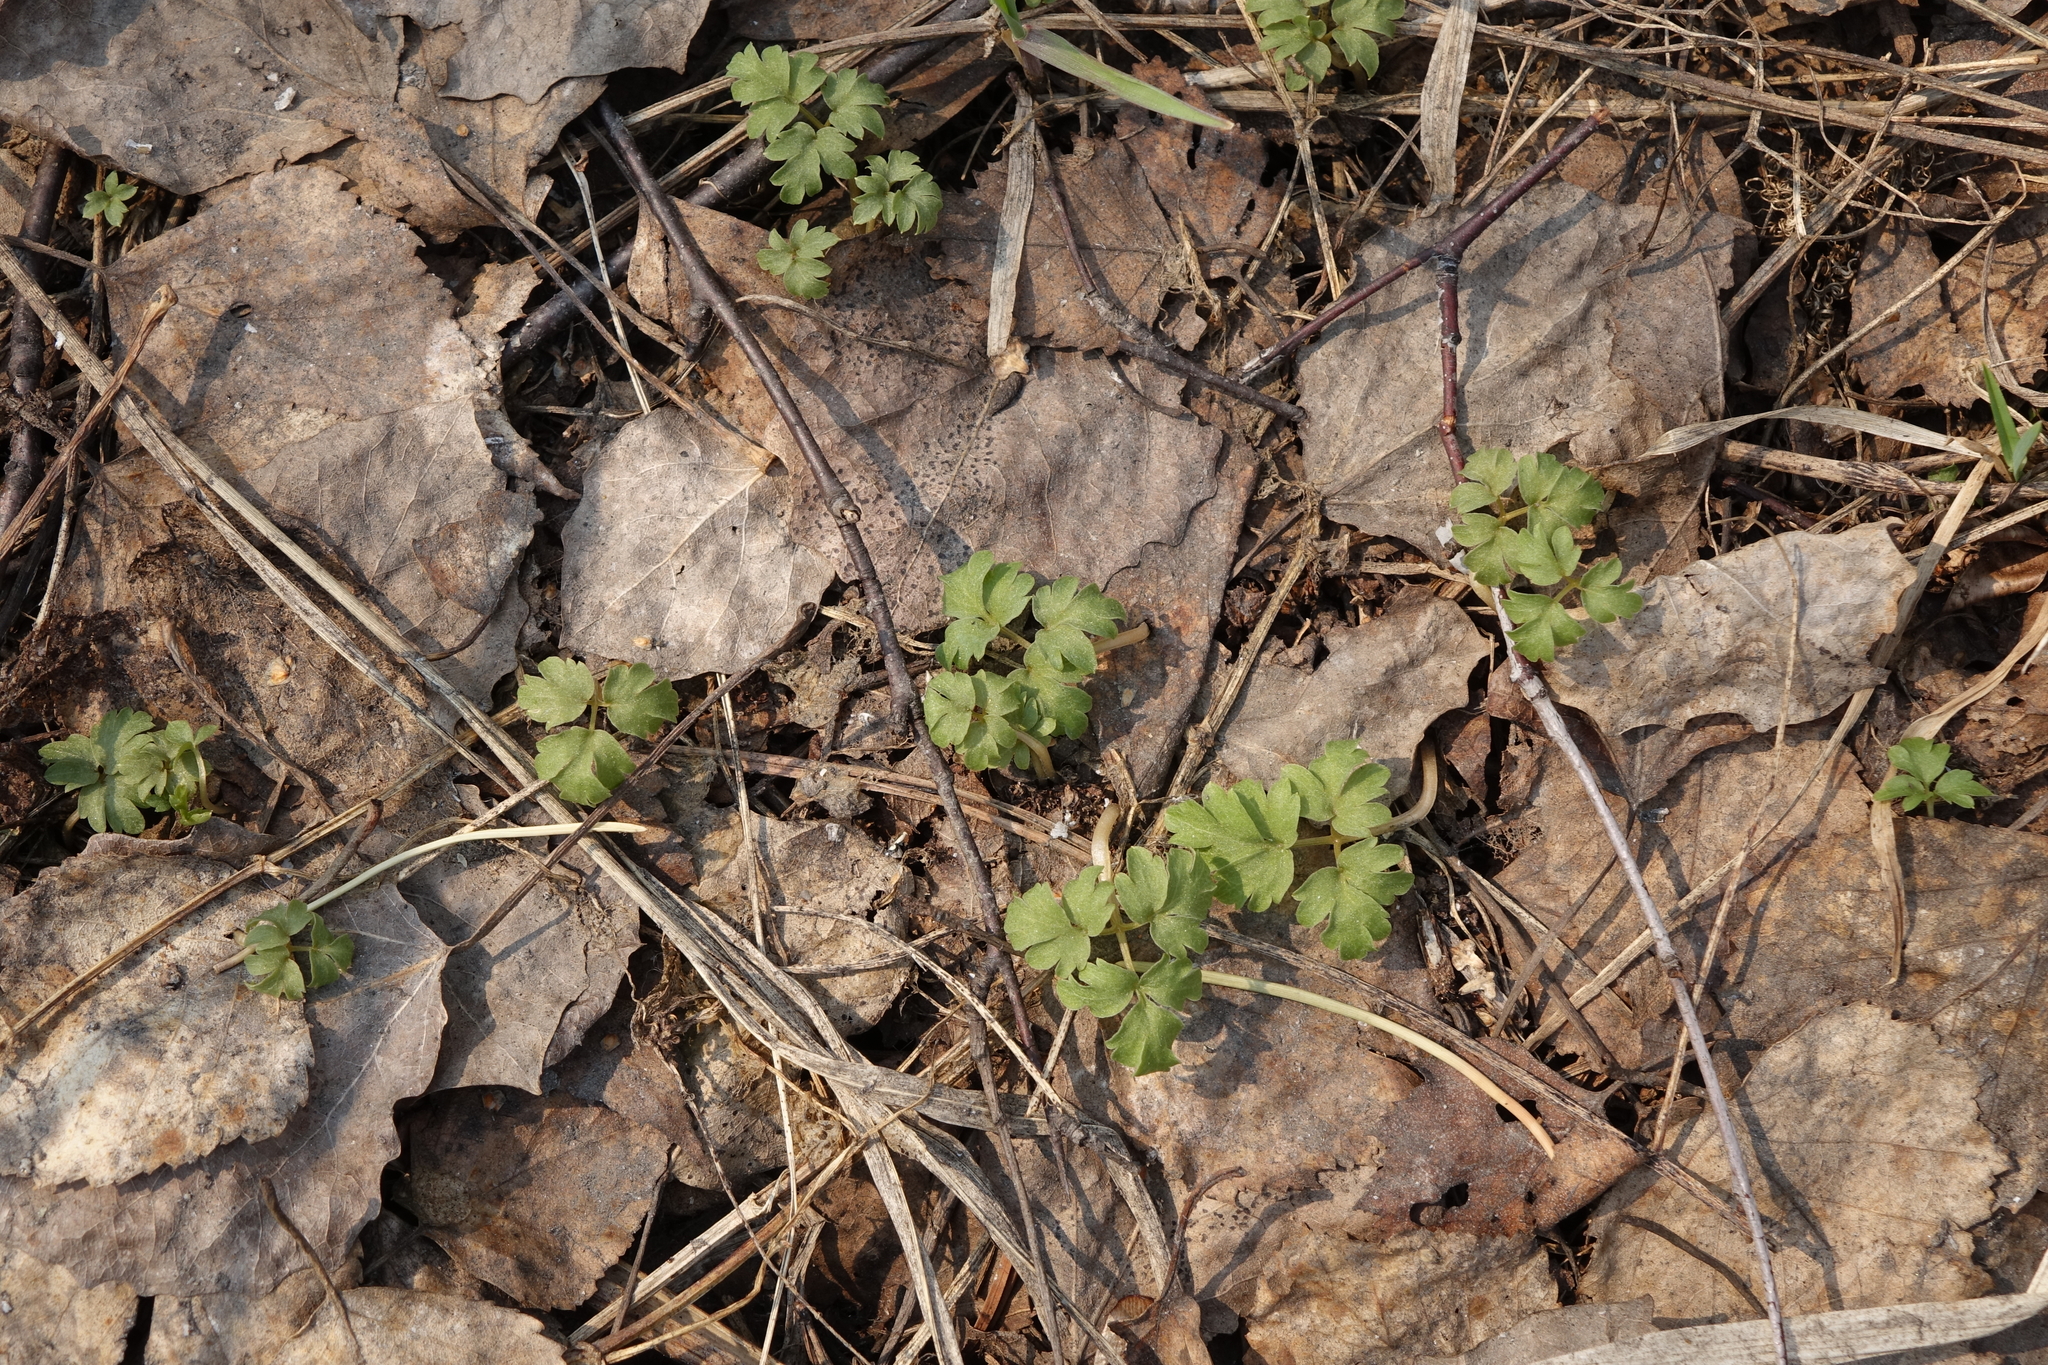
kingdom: Plantae
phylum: Tracheophyta
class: Magnoliopsida
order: Dipsacales
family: Viburnaceae
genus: Adoxa
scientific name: Adoxa moschatellina
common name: Moschatel
